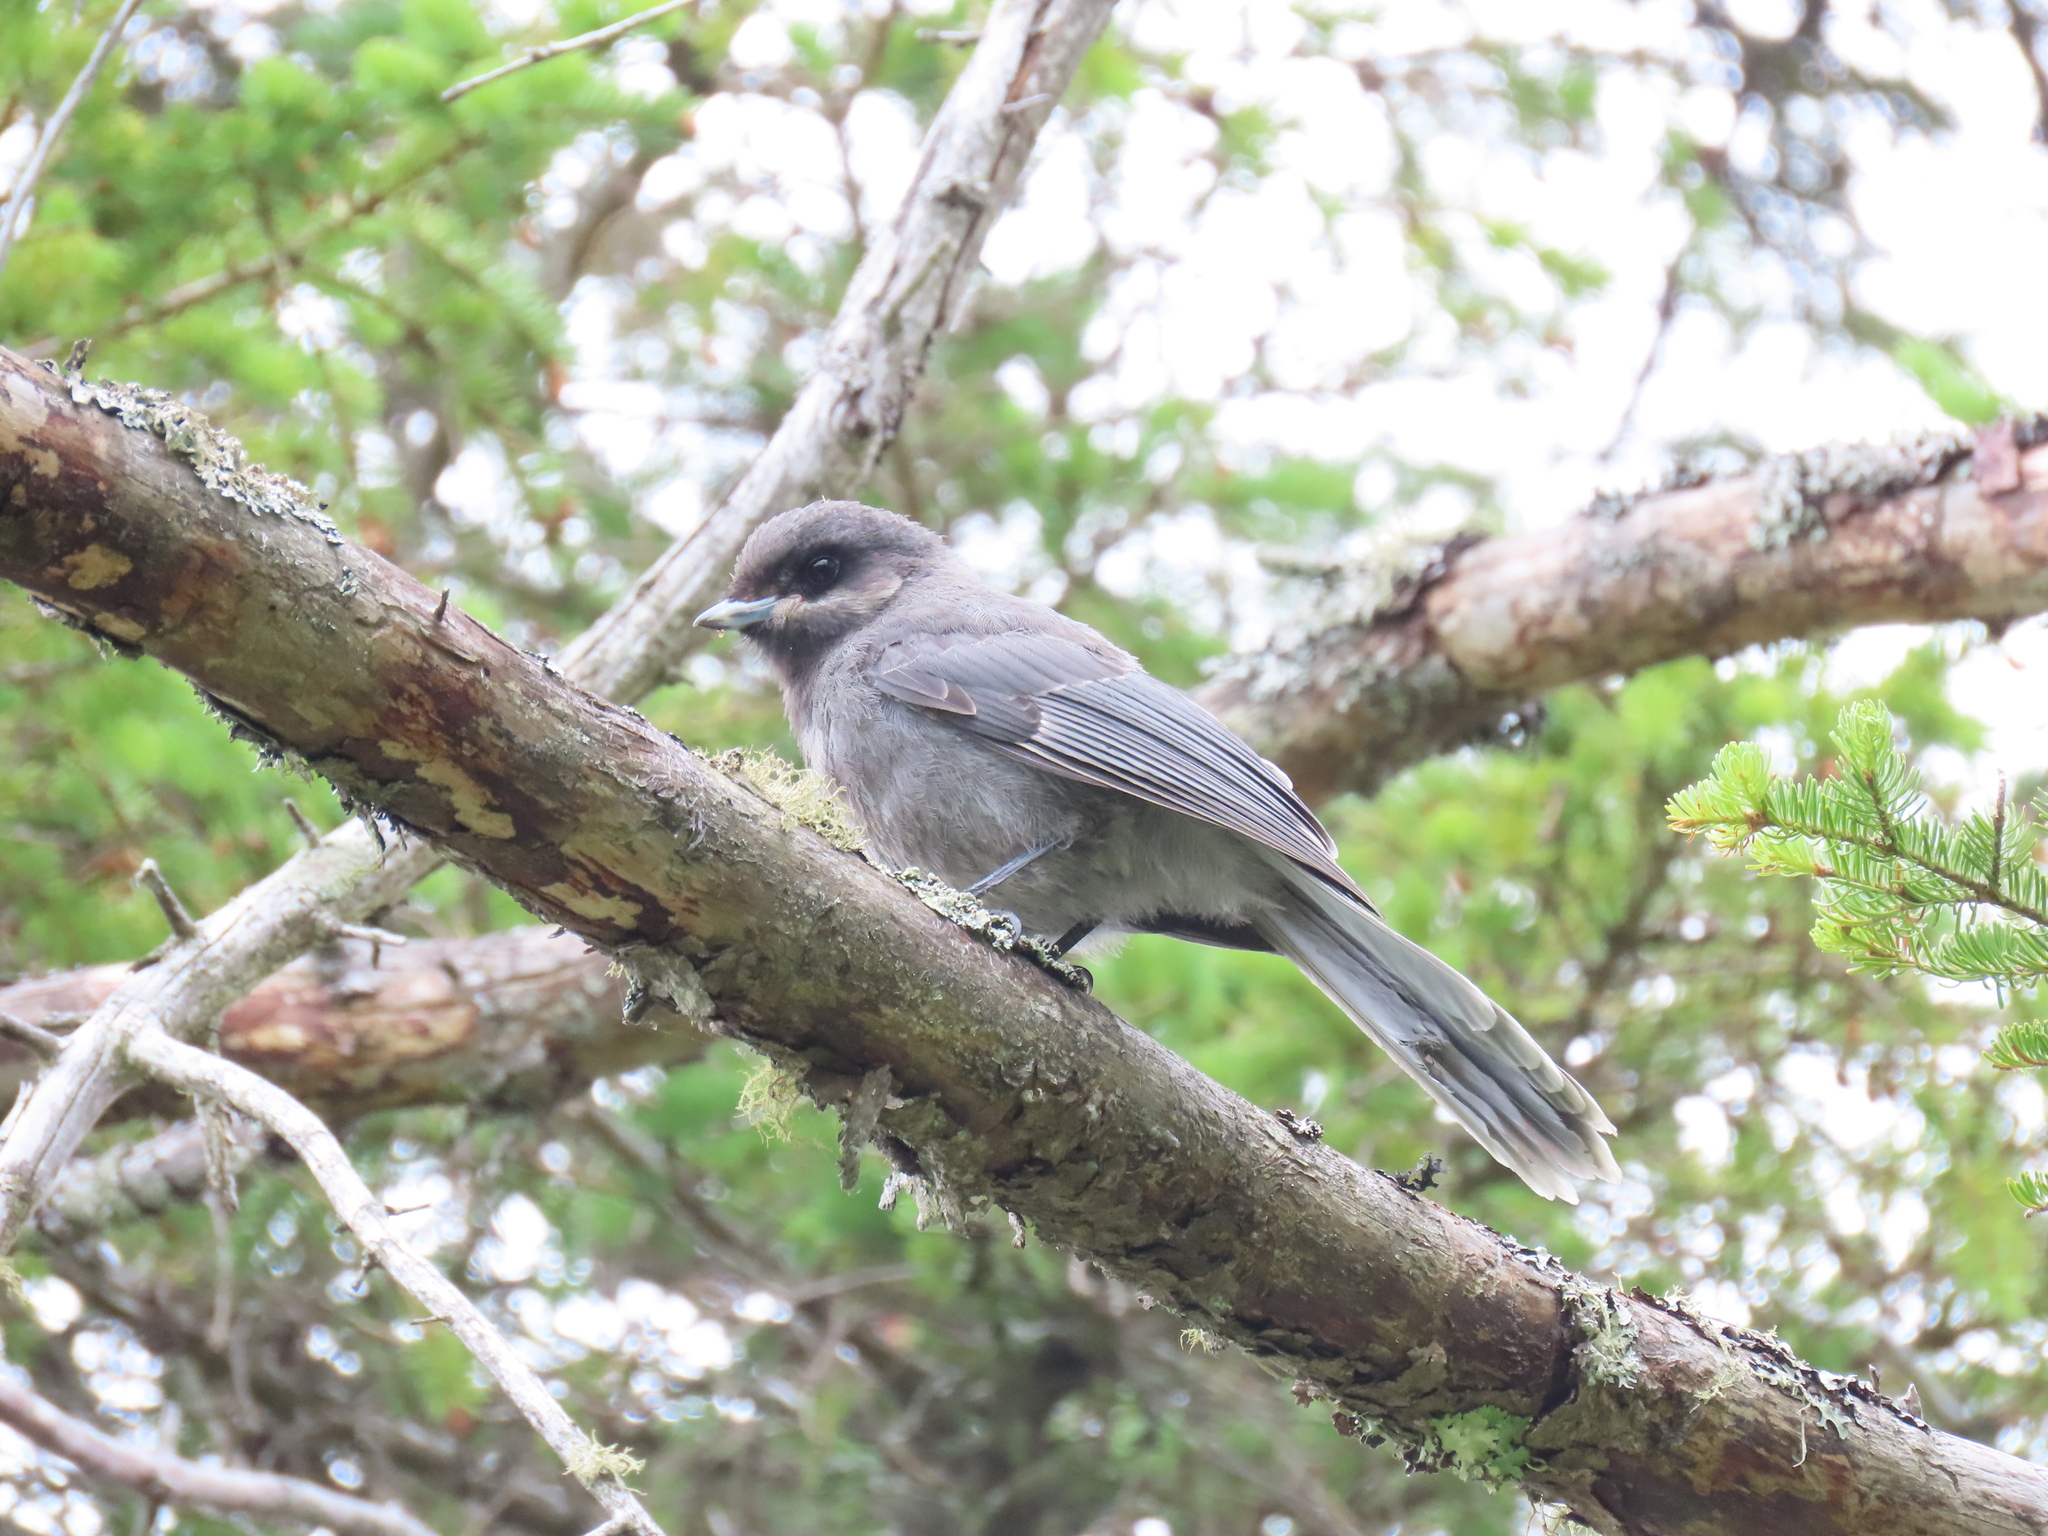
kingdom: Animalia
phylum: Chordata
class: Aves
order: Passeriformes
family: Corvidae
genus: Perisoreus
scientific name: Perisoreus canadensis
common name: Gray jay
